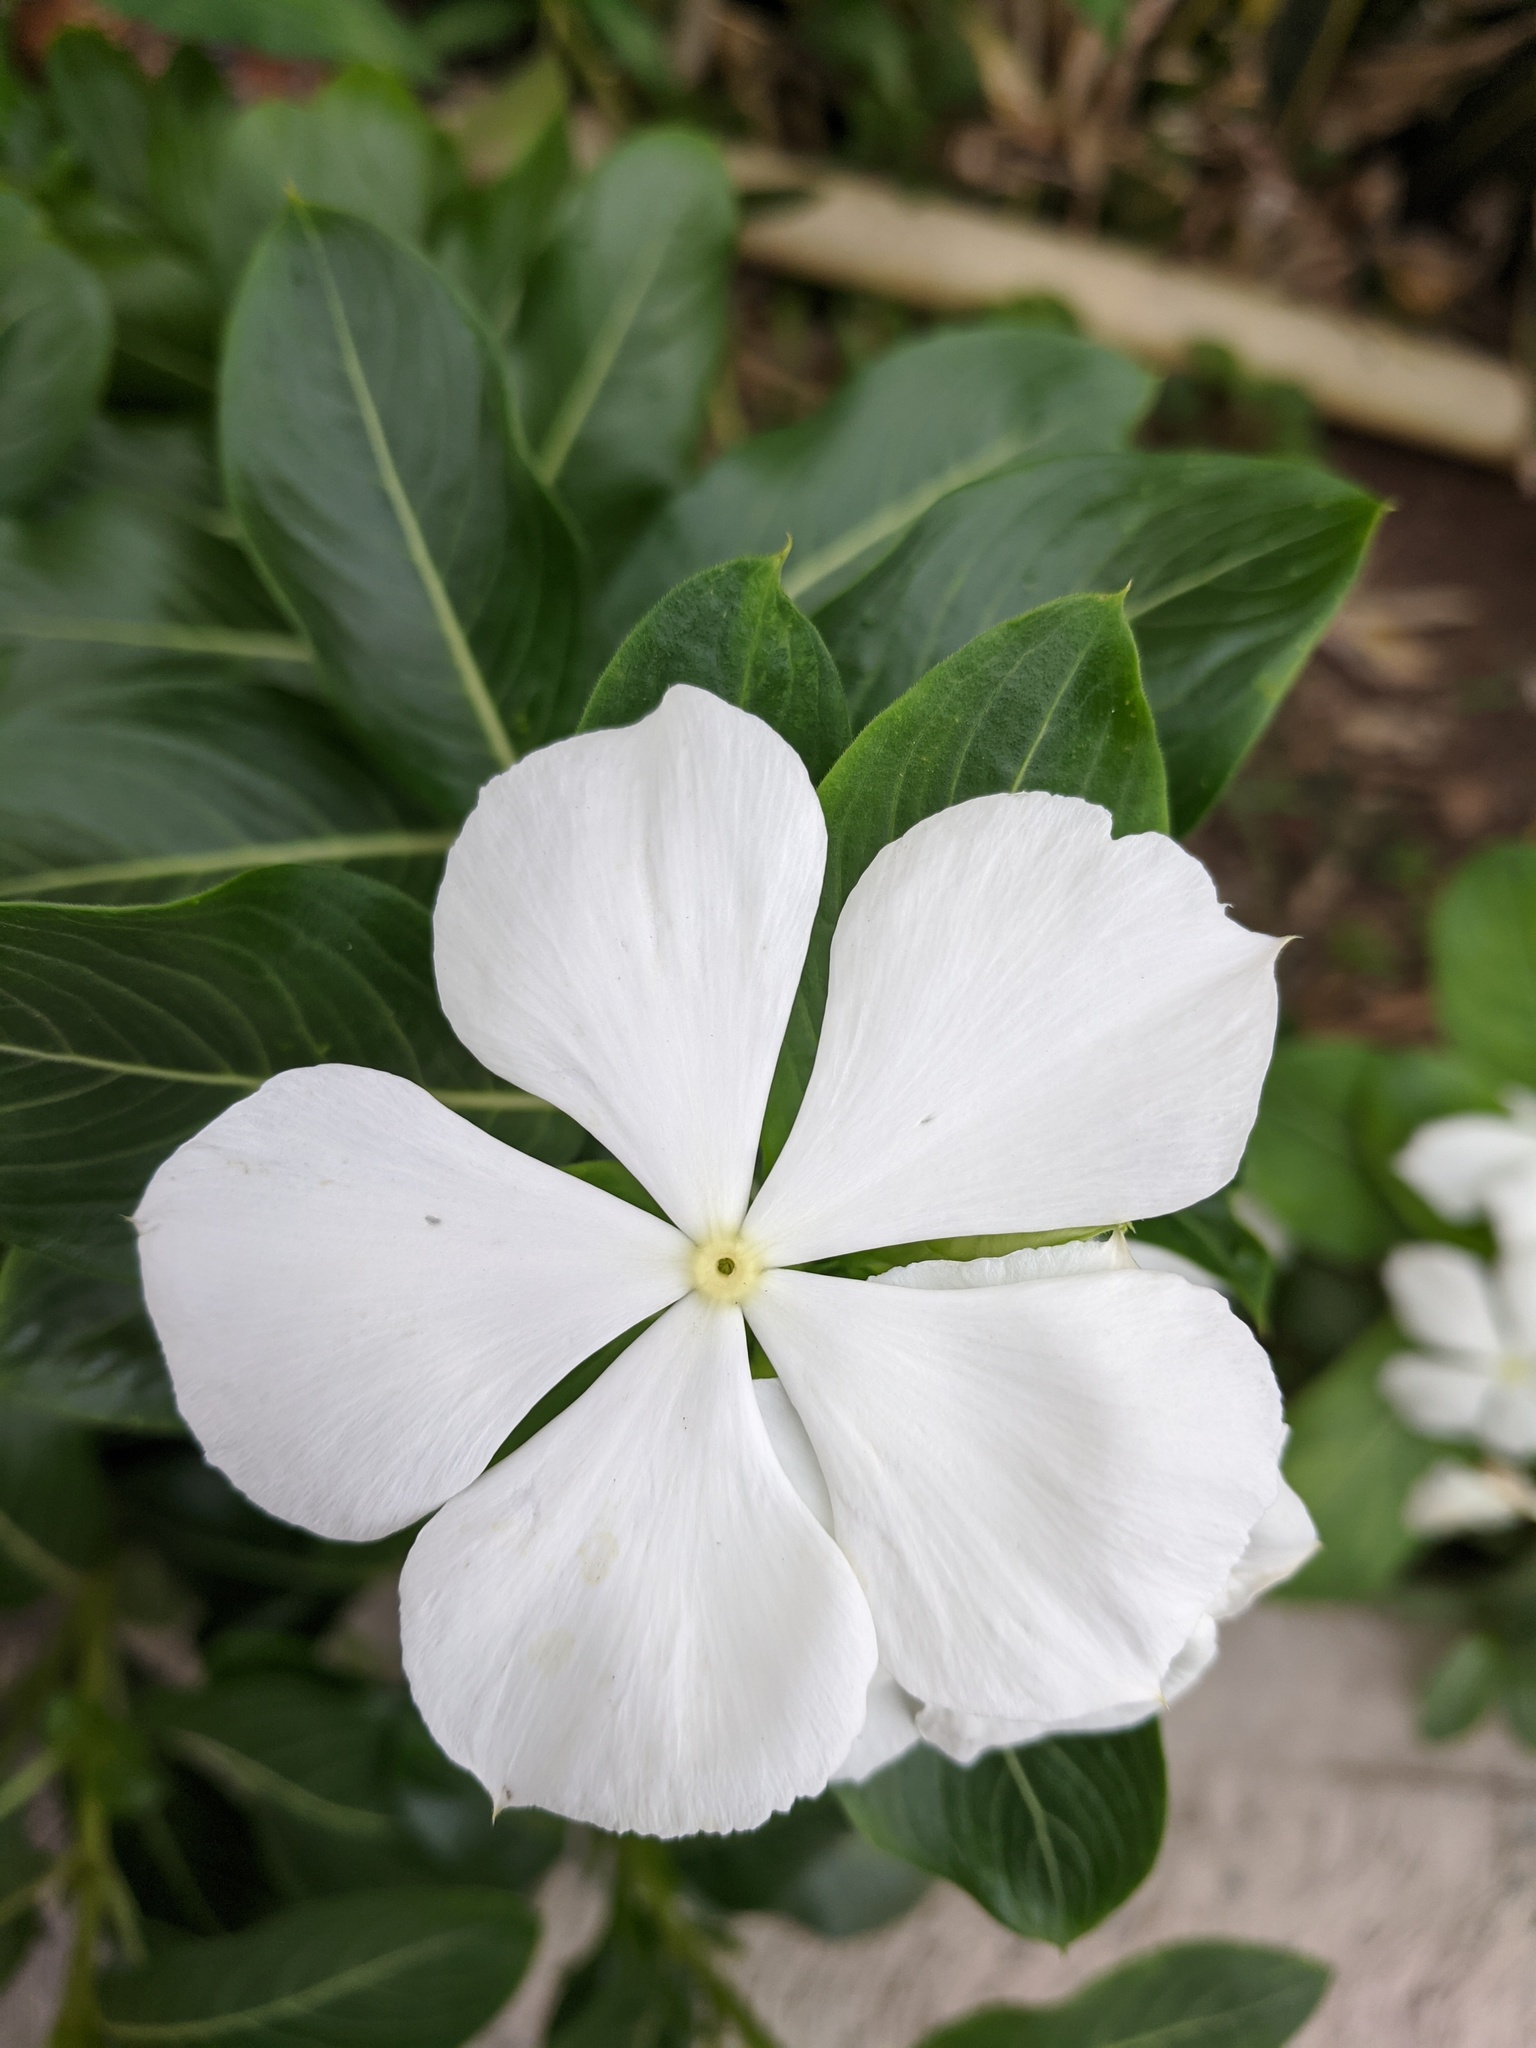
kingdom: Plantae
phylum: Tracheophyta
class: Magnoliopsida
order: Gentianales
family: Apocynaceae
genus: Catharanthus
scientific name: Catharanthus roseus
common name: Madagascar periwinkle
